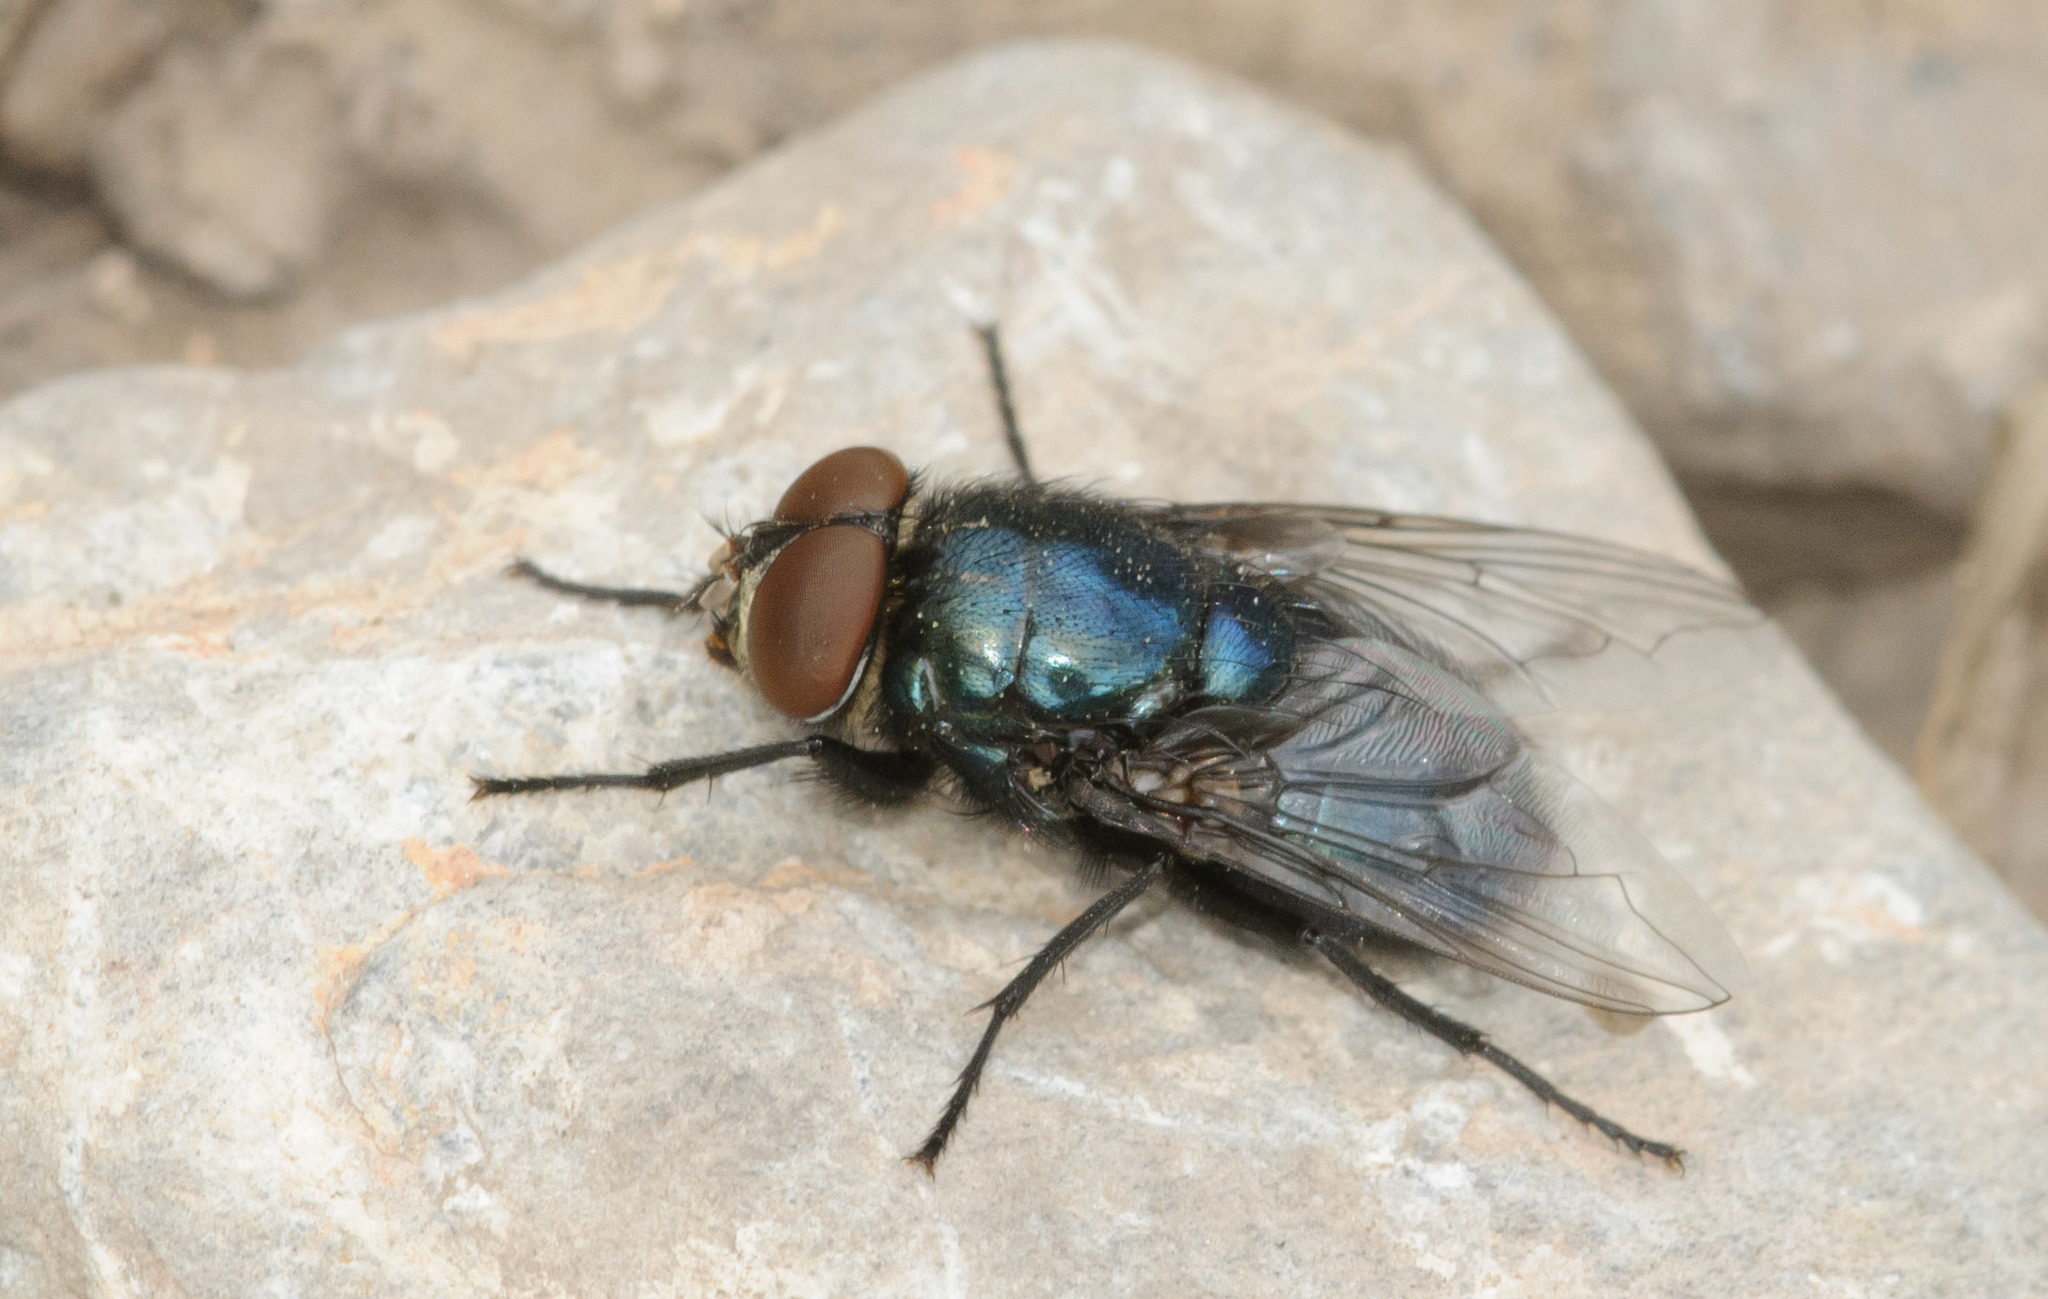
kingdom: Animalia
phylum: Arthropoda
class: Insecta
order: Diptera
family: Calliphoridae
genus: Phormia
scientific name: Phormia regina
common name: Black blow fly
